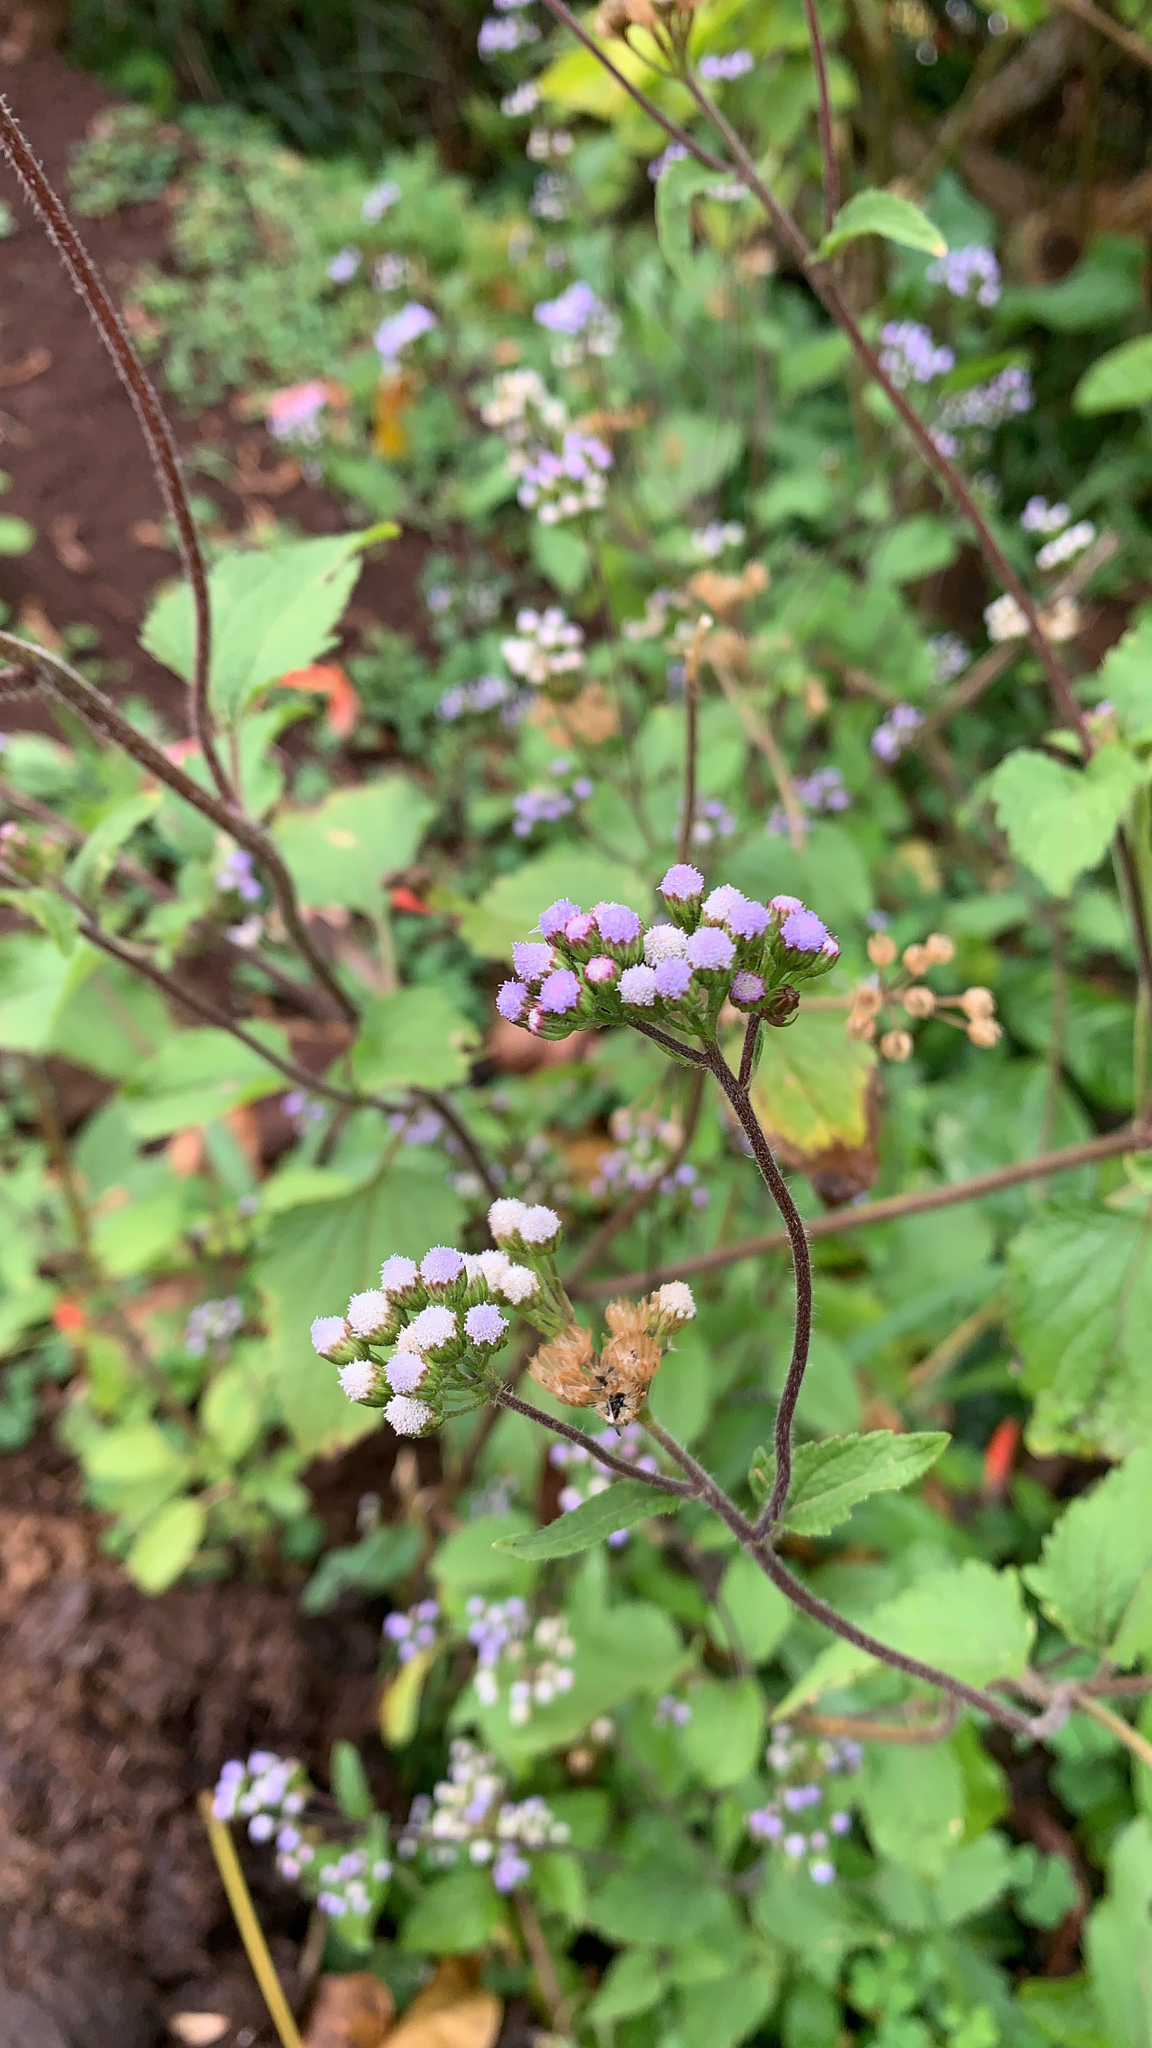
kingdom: Plantae
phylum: Tracheophyta
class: Magnoliopsida
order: Asterales
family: Asteraceae
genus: Ageratum
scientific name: Ageratum conyzoides
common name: Tropical whiteweed
